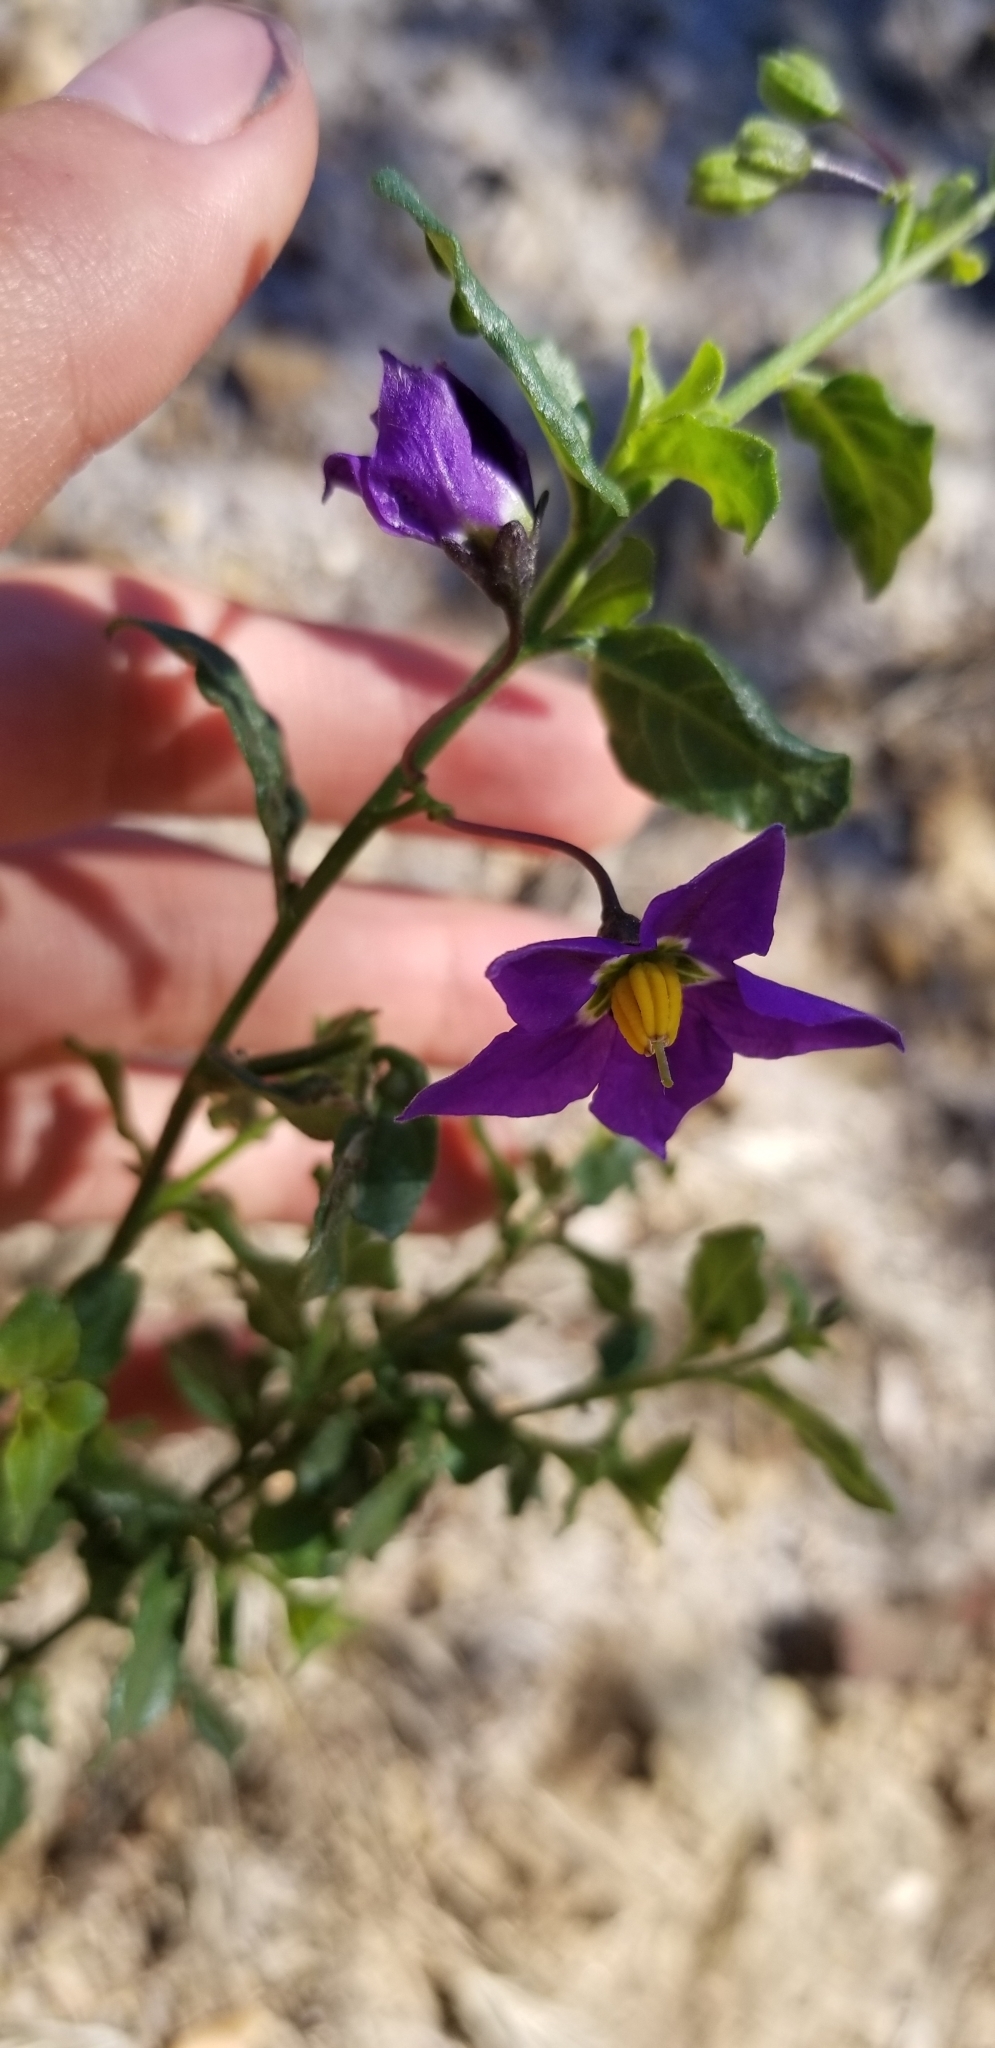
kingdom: Plantae
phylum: Tracheophyta
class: Magnoliopsida
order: Solanales
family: Solanaceae
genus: Solanum
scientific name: Solanum umbelliferum
